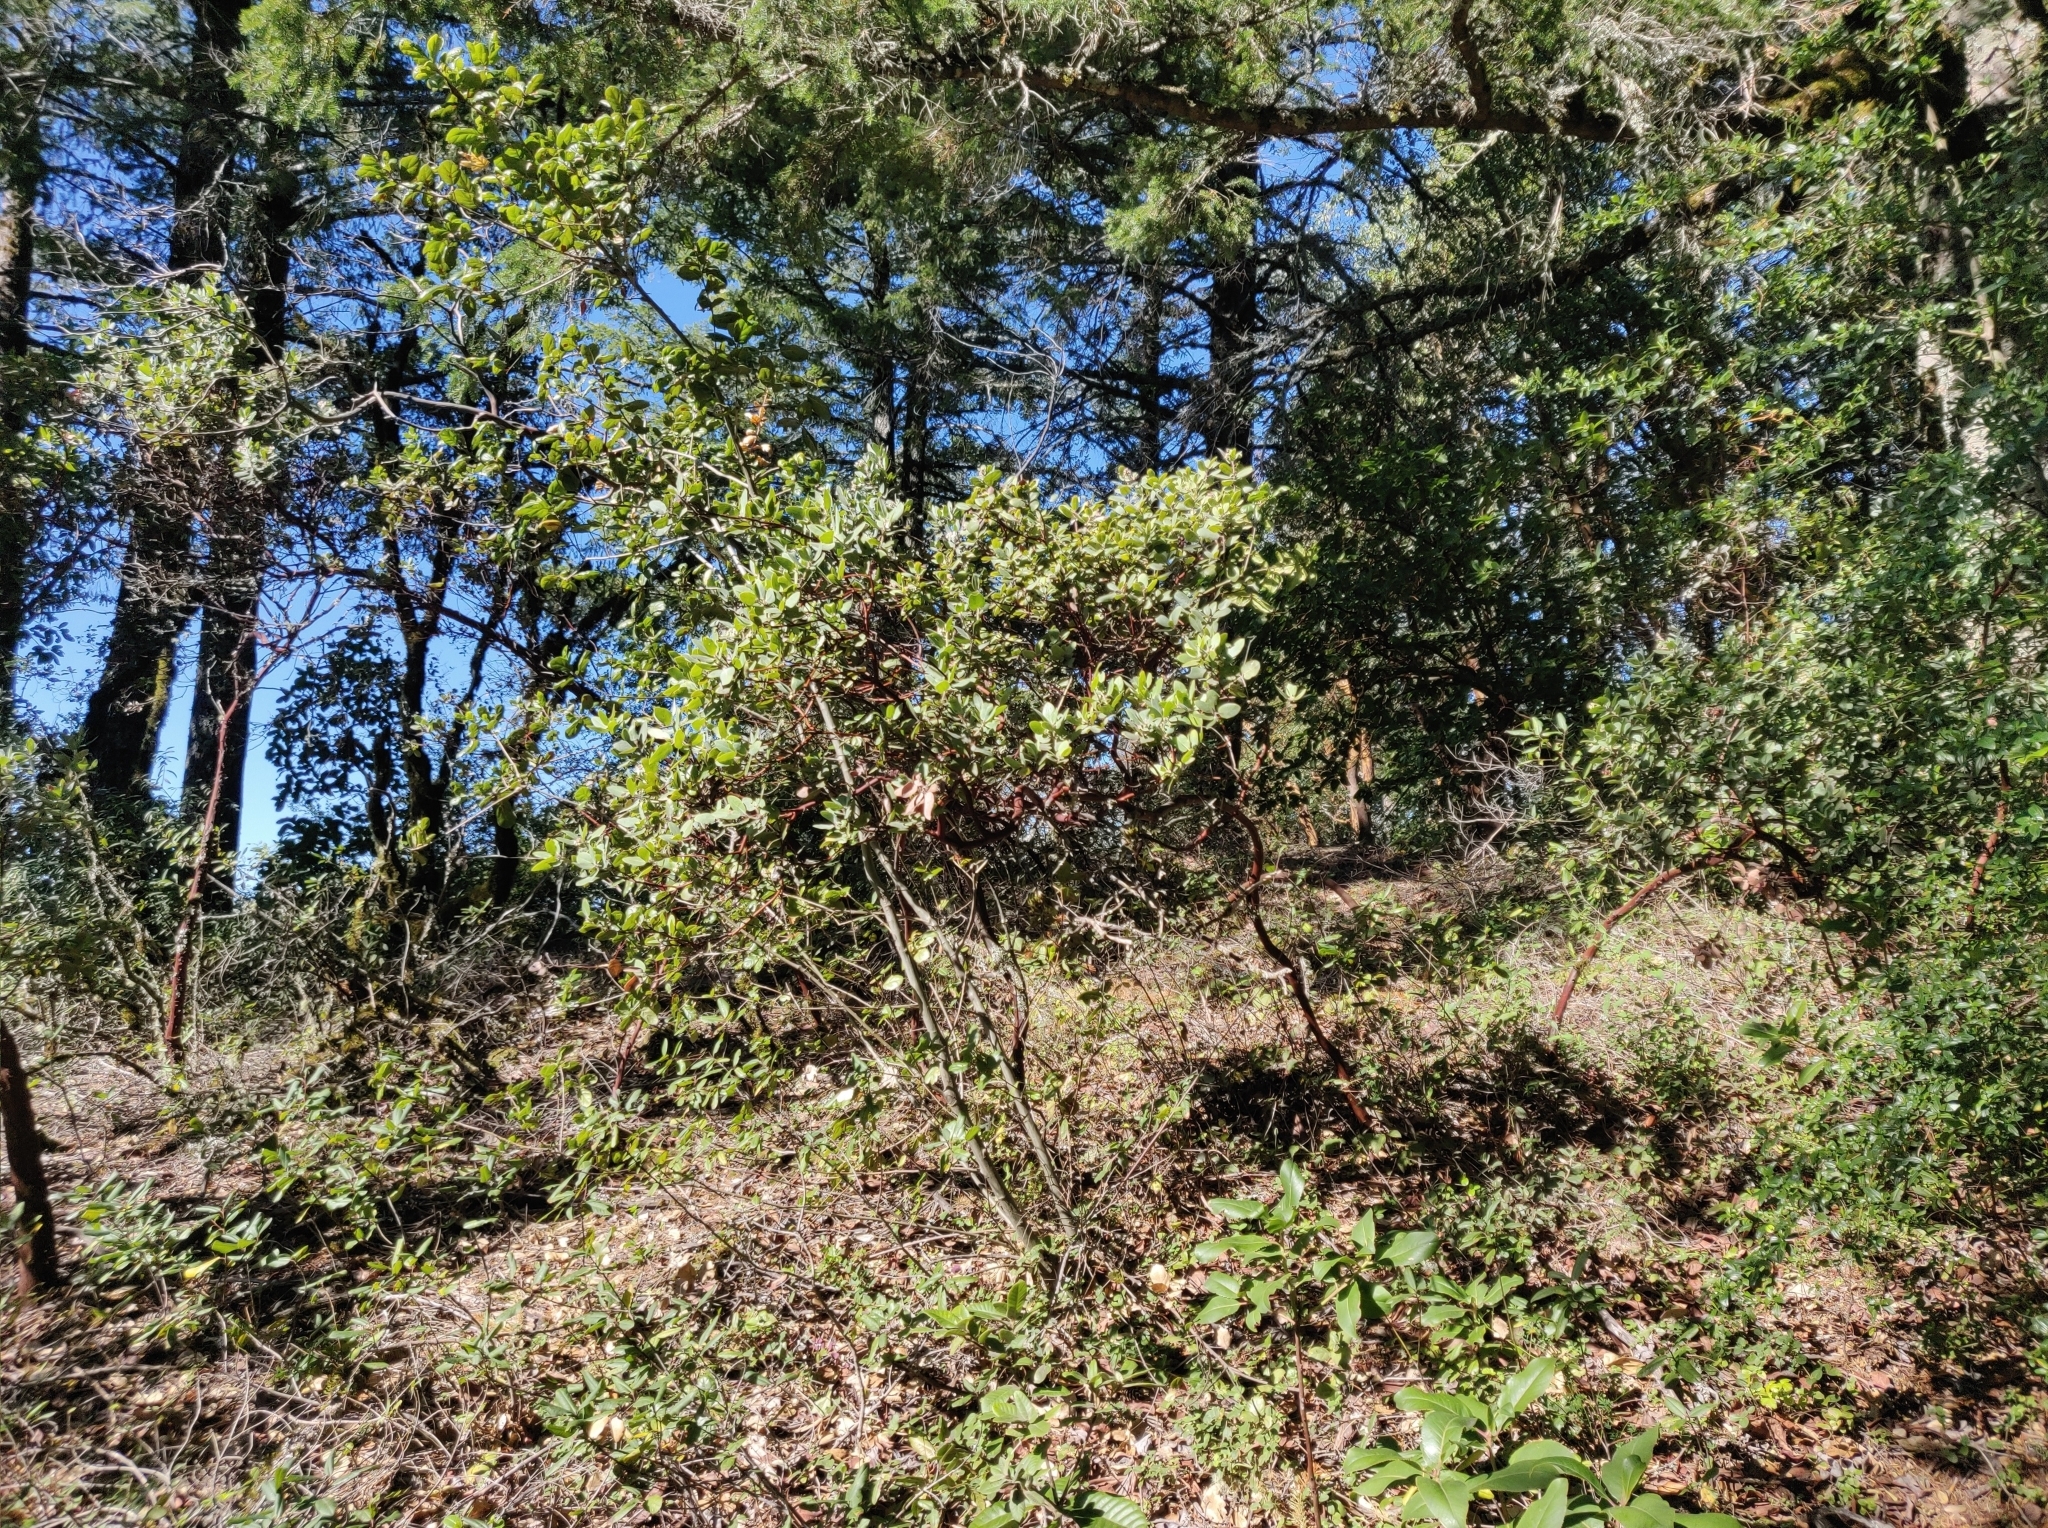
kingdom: Plantae
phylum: Tracheophyta
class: Magnoliopsida
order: Ericales
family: Ericaceae
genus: Arctostaphylos
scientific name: Arctostaphylos crustacea
